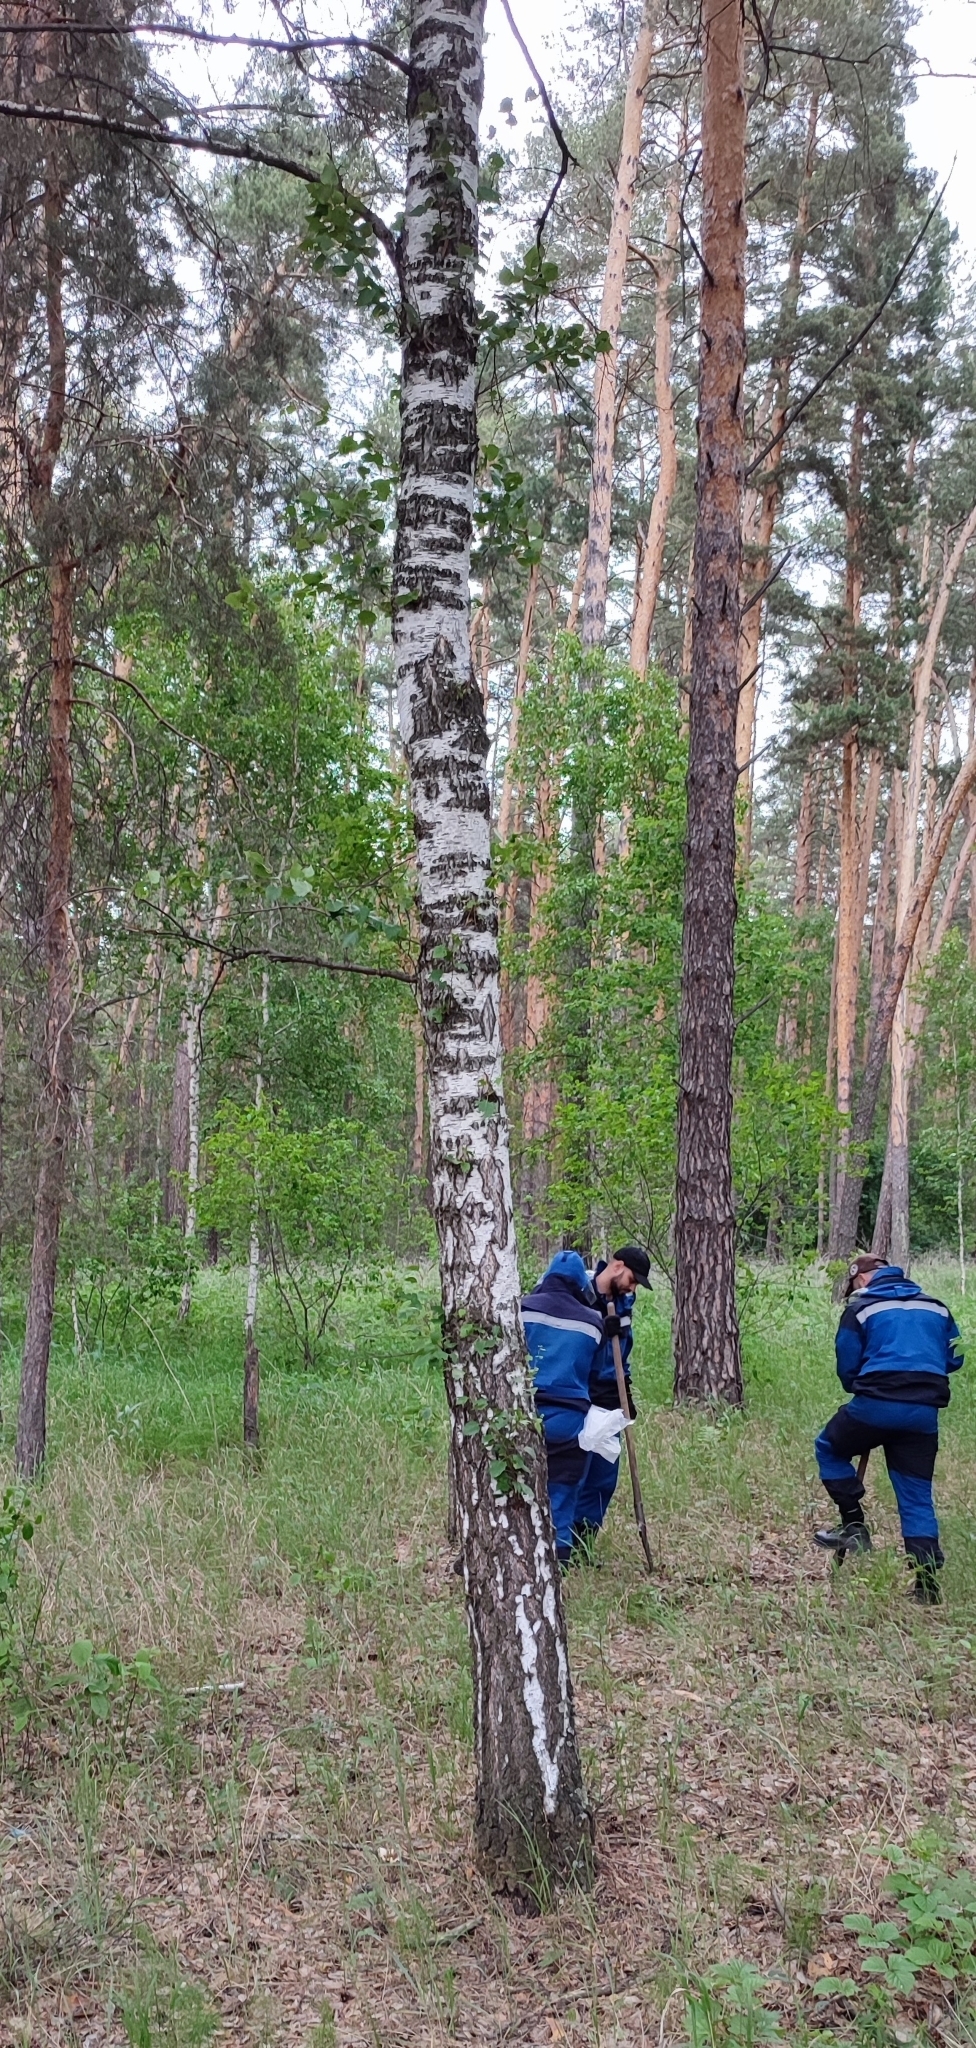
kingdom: Plantae
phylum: Tracheophyta
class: Magnoliopsida
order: Fagales
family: Betulaceae
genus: Betula
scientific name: Betula pendula
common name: Silver birch
